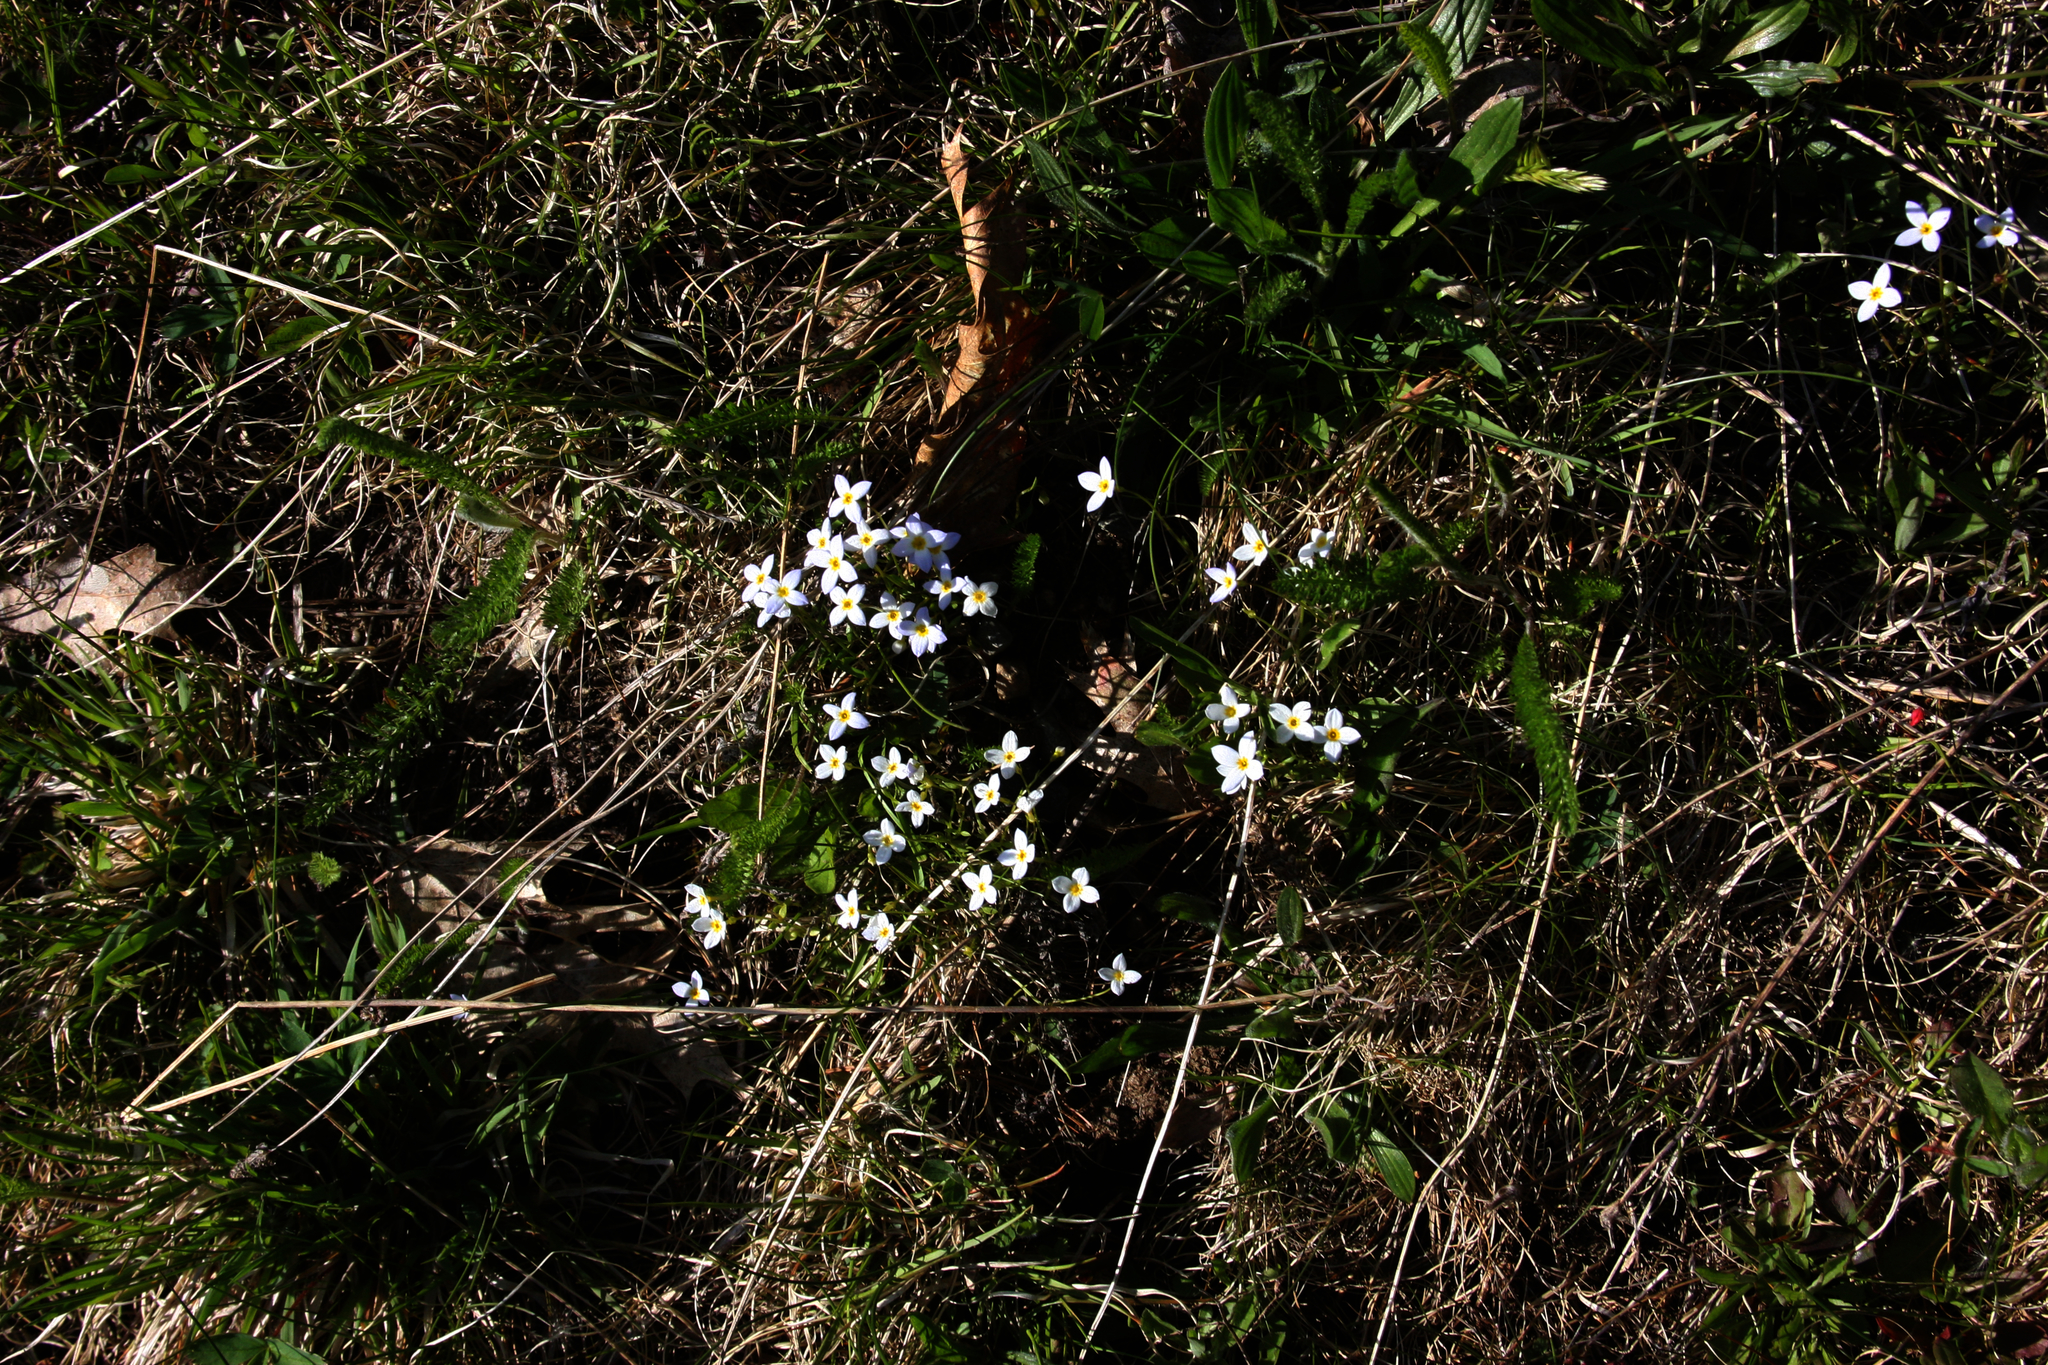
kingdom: Plantae
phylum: Tracheophyta
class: Magnoliopsida
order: Gentianales
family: Rubiaceae
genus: Houstonia
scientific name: Houstonia caerulea
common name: Bluets
